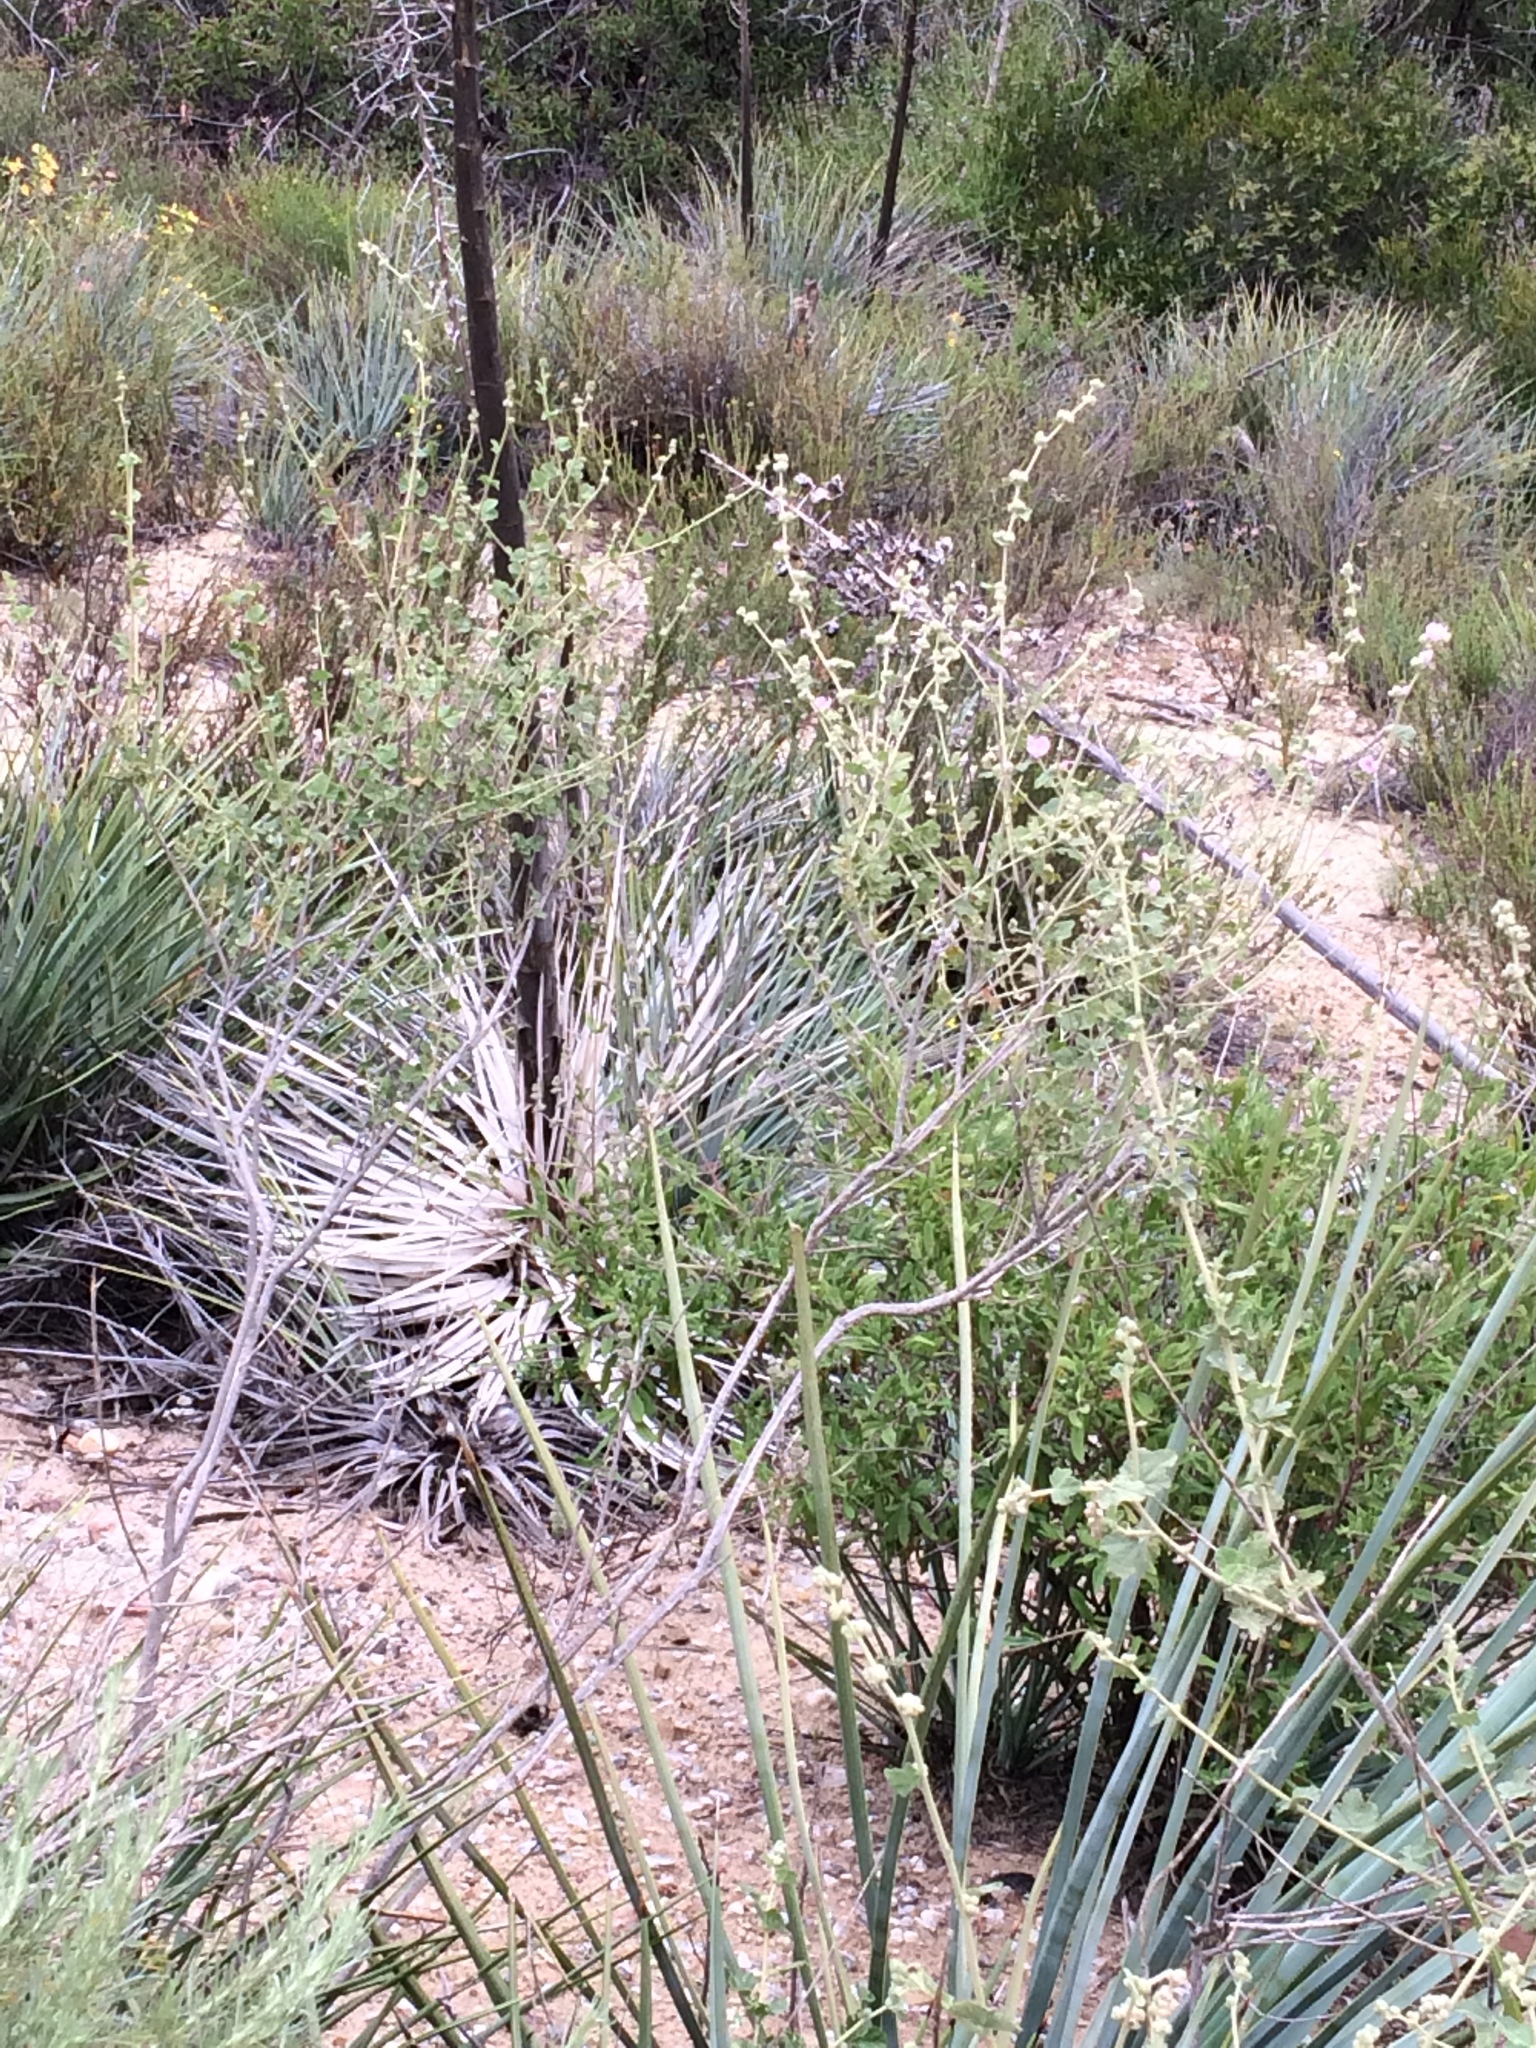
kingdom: Plantae
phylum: Tracheophyta
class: Magnoliopsida
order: Malvales
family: Malvaceae
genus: Malacothamnus
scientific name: Malacothamnus fasciculatus
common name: Sant cruz island bush-mallow
